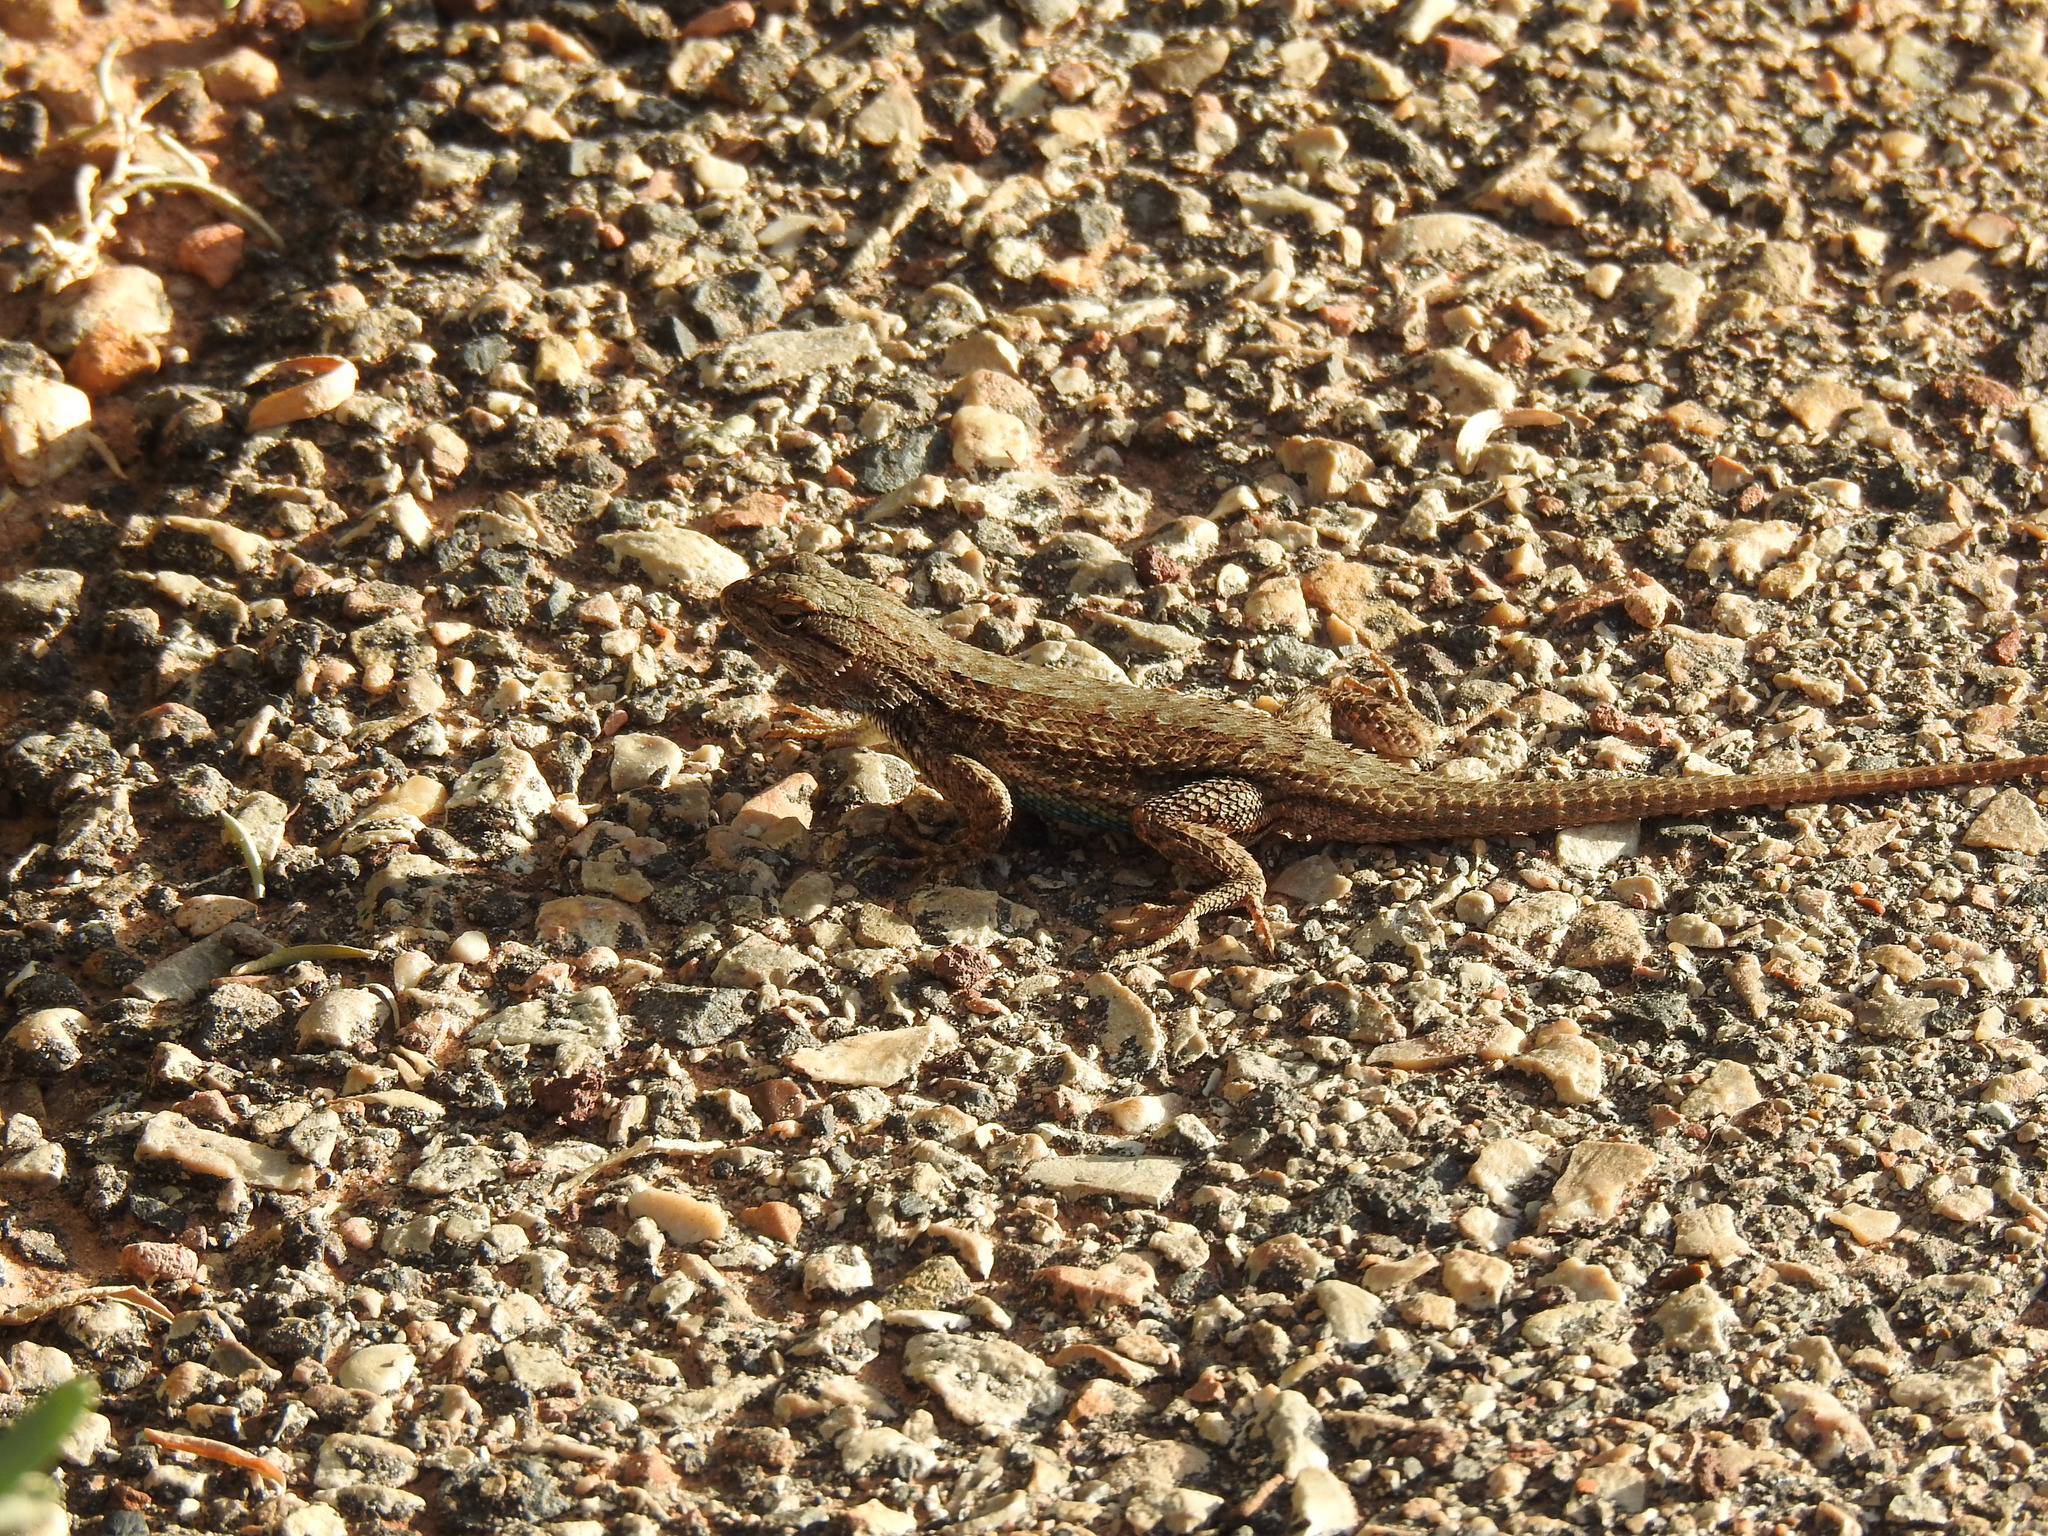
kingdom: Animalia
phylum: Chordata
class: Squamata
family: Phrynosomatidae
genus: Sceloporus
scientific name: Sceloporus tristichus
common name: Plateau fence lizard
